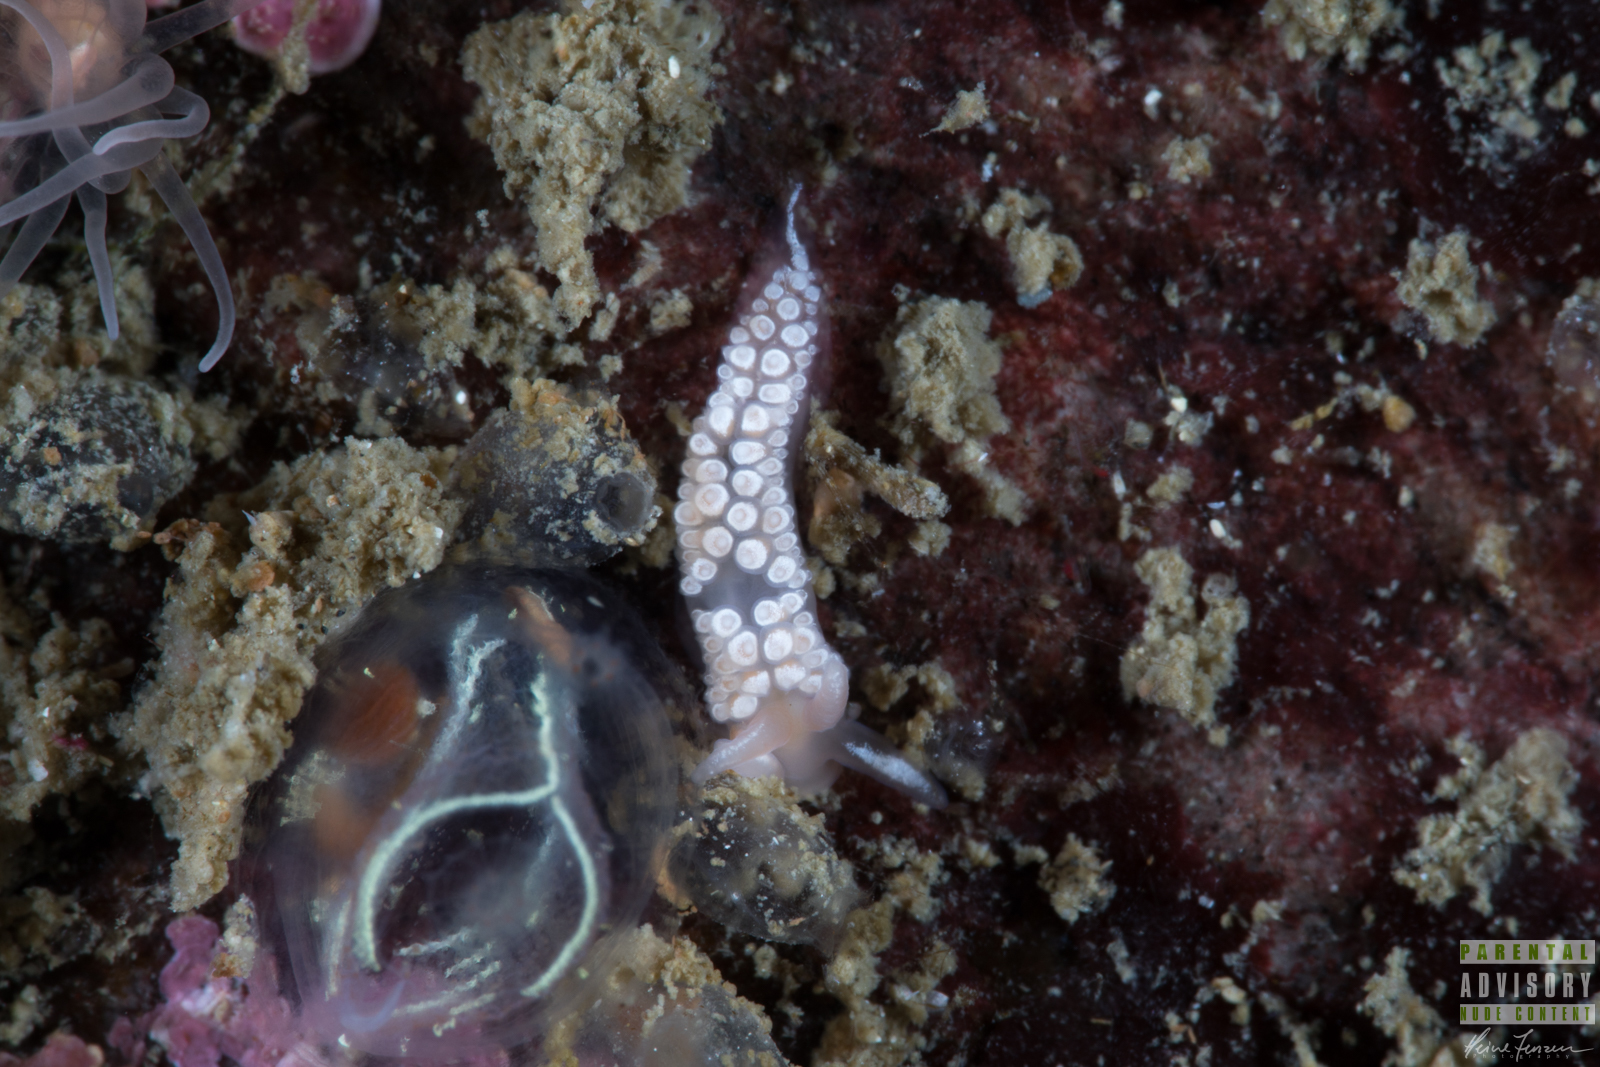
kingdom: Animalia
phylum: Mollusca
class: Gastropoda
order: Nudibranchia
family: Coryphellidae
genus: Coryphella
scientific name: Coryphella verrucosa
